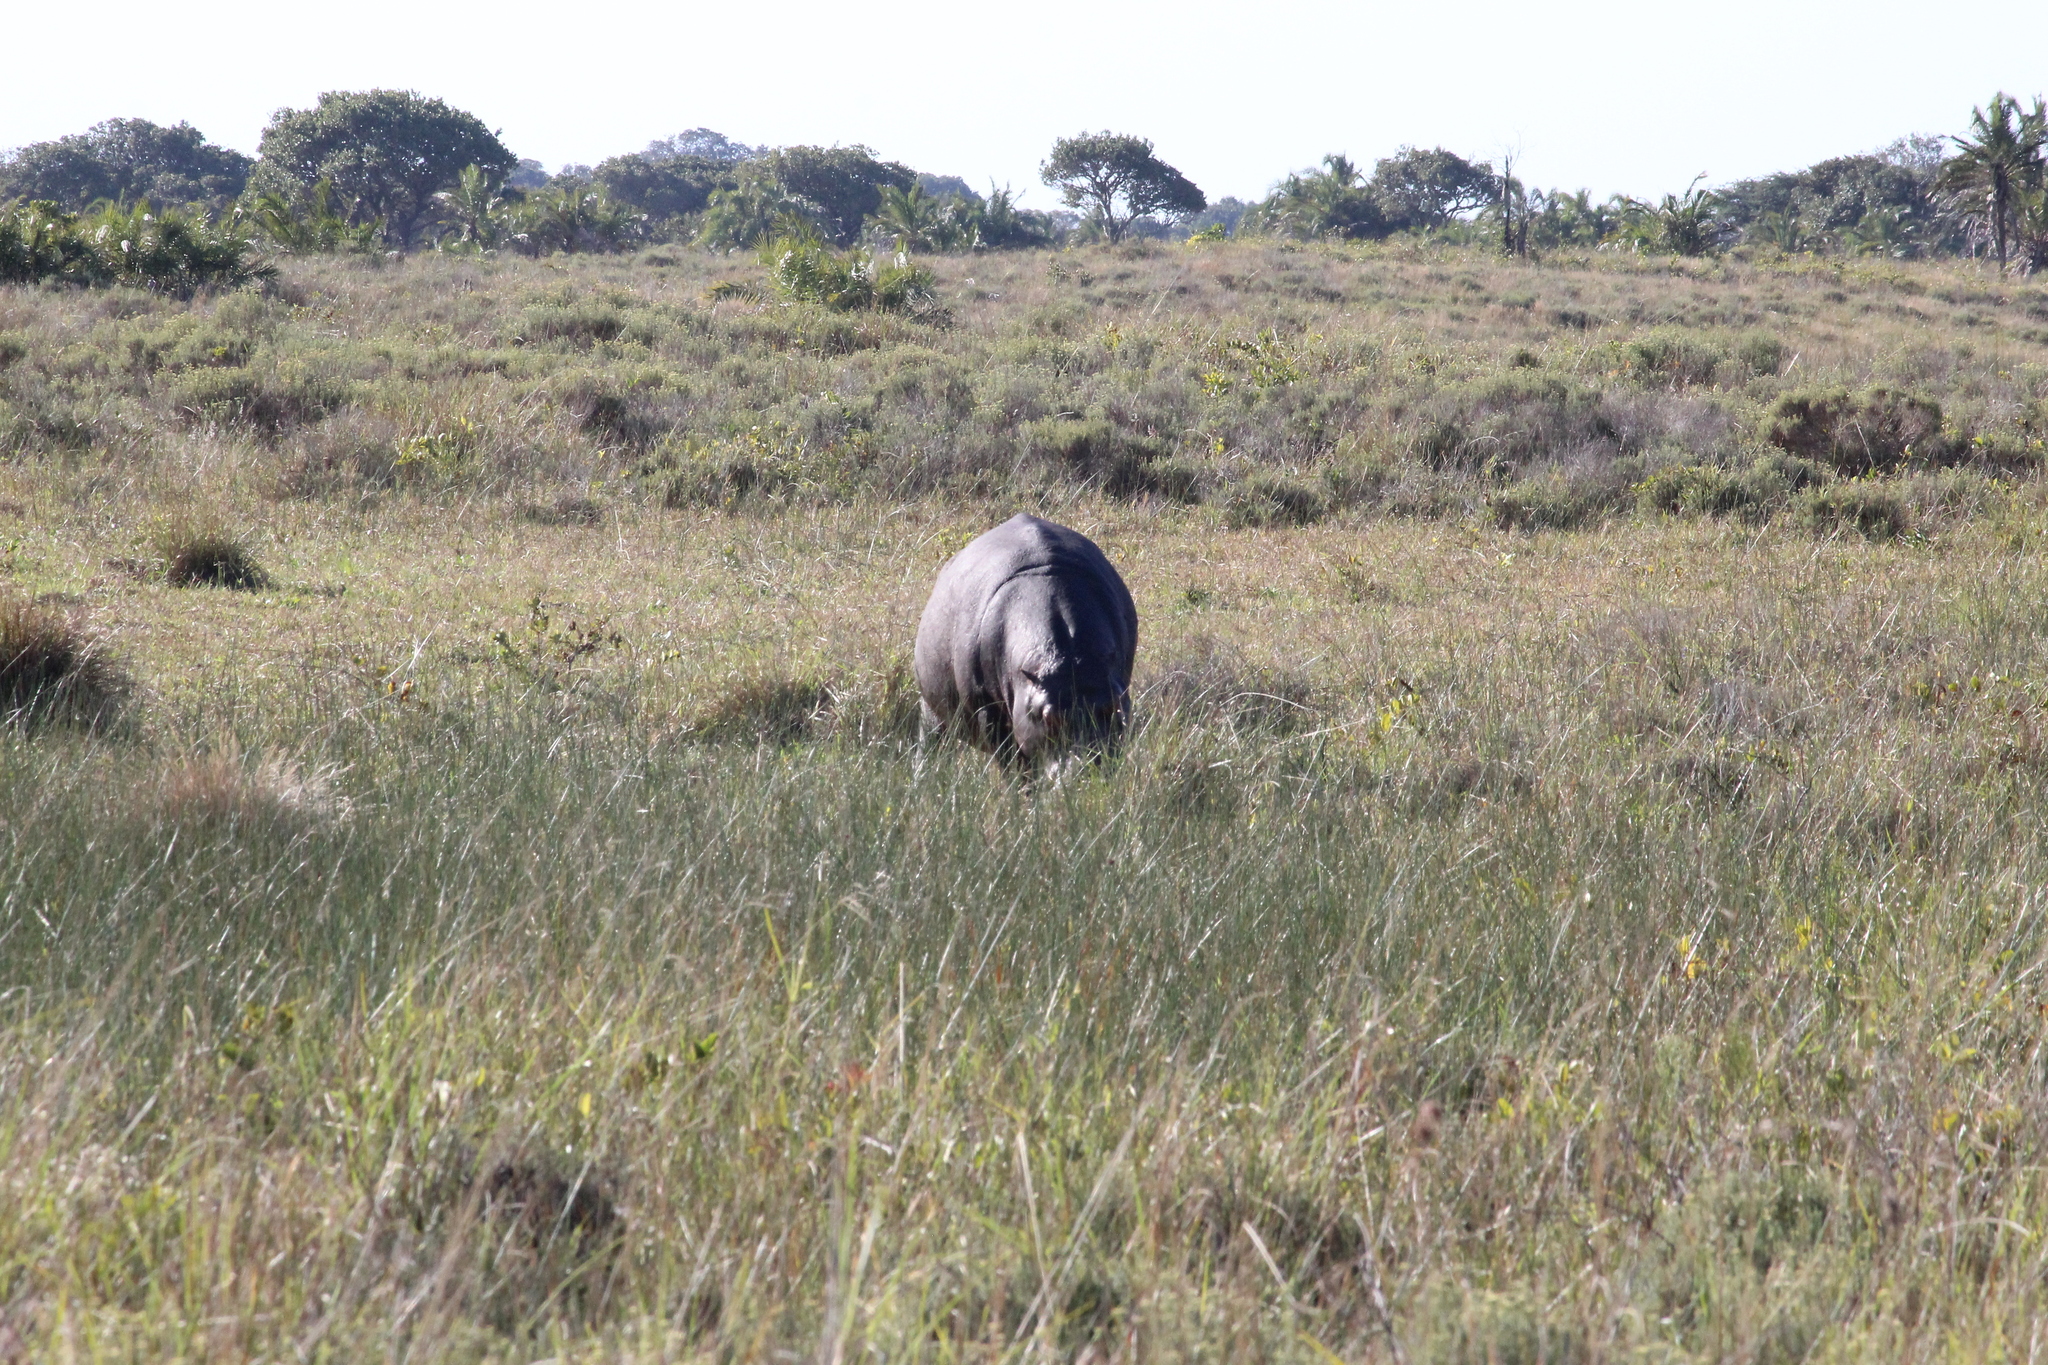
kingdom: Animalia
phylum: Chordata
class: Mammalia
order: Artiodactyla
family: Hippopotamidae
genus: Hippopotamus
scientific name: Hippopotamus amphibius
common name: Common hippopotamus
